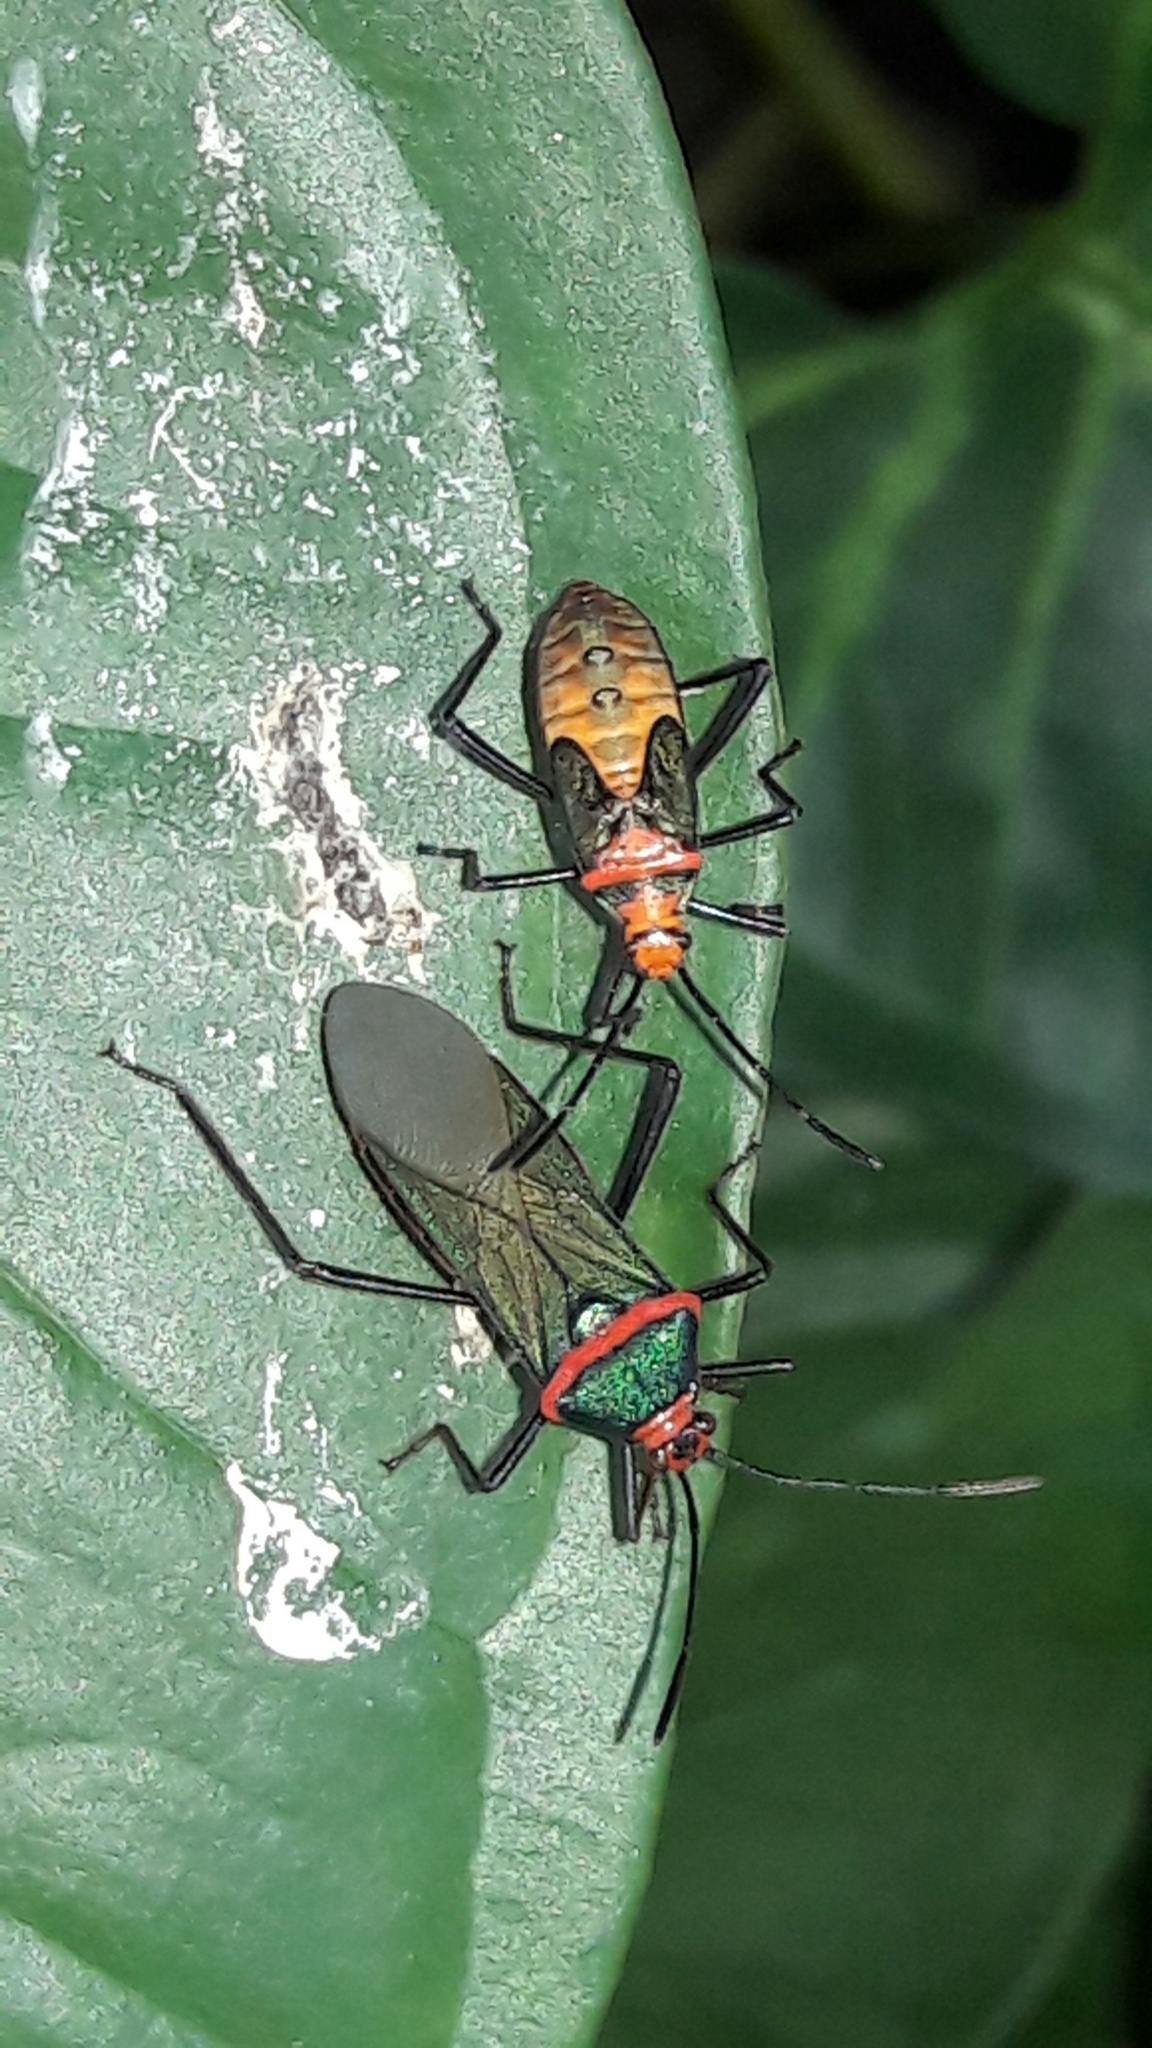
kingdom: Animalia
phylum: Arthropoda
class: Insecta
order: Hemiptera
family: Coreidae
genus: Sphictyrtus
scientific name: Sphictyrtus chrysis
